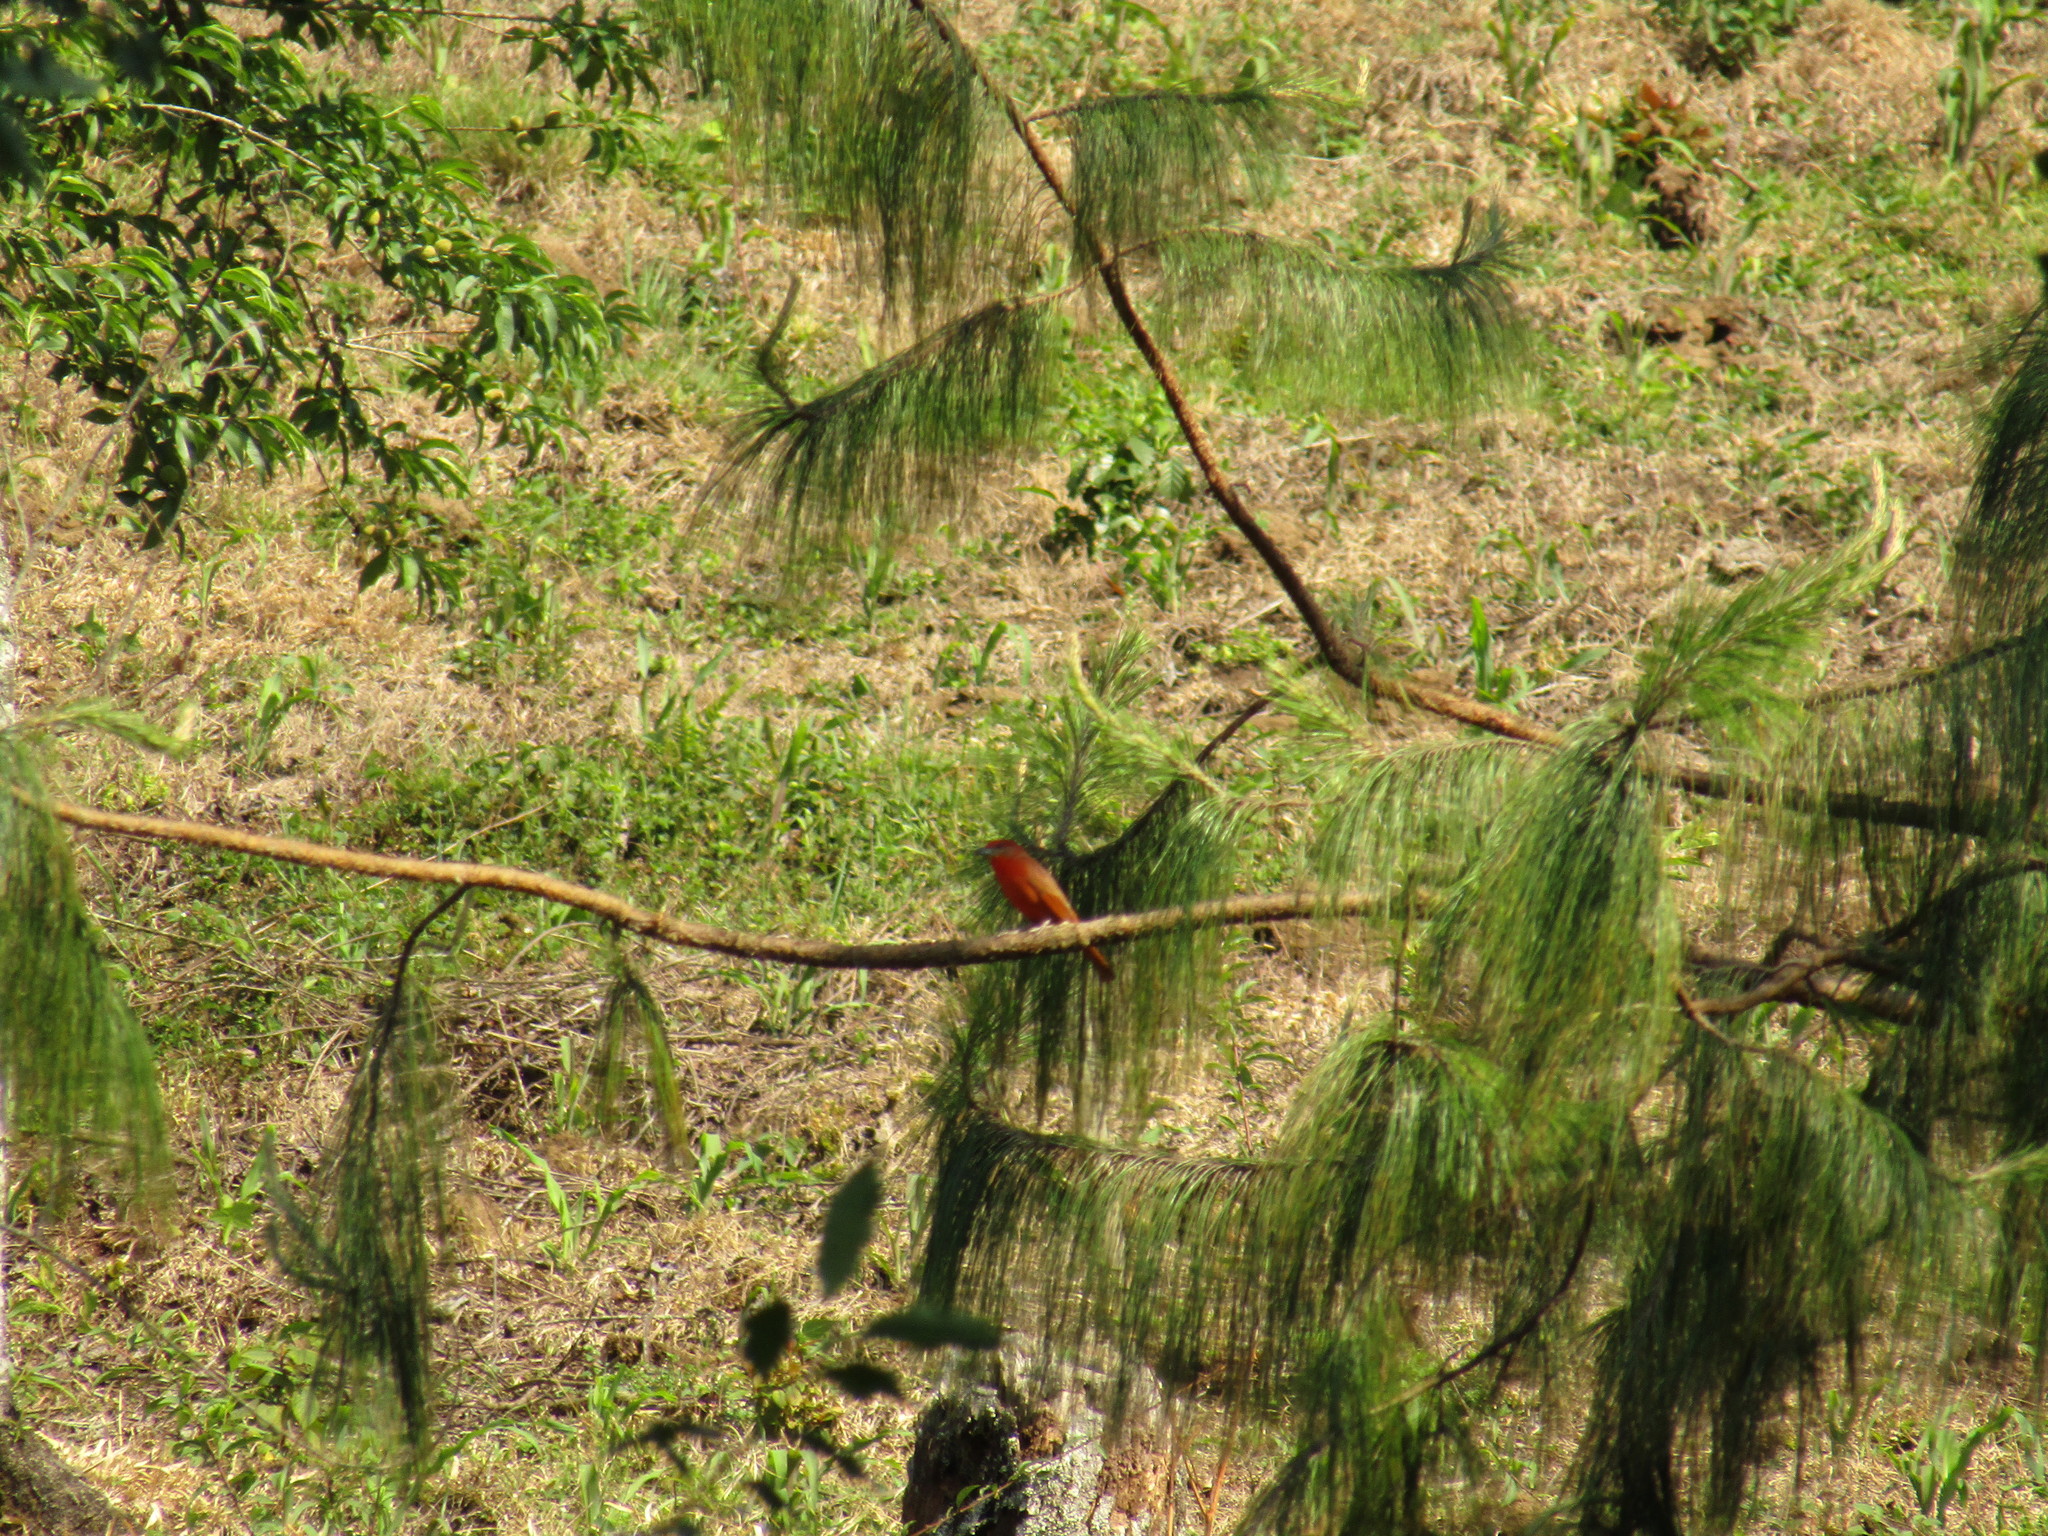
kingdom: Animalia
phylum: Chordata
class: Aves
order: Passeriformes
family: Cardinalidae
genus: Piranga
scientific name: Piranga flava
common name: Red tanager
